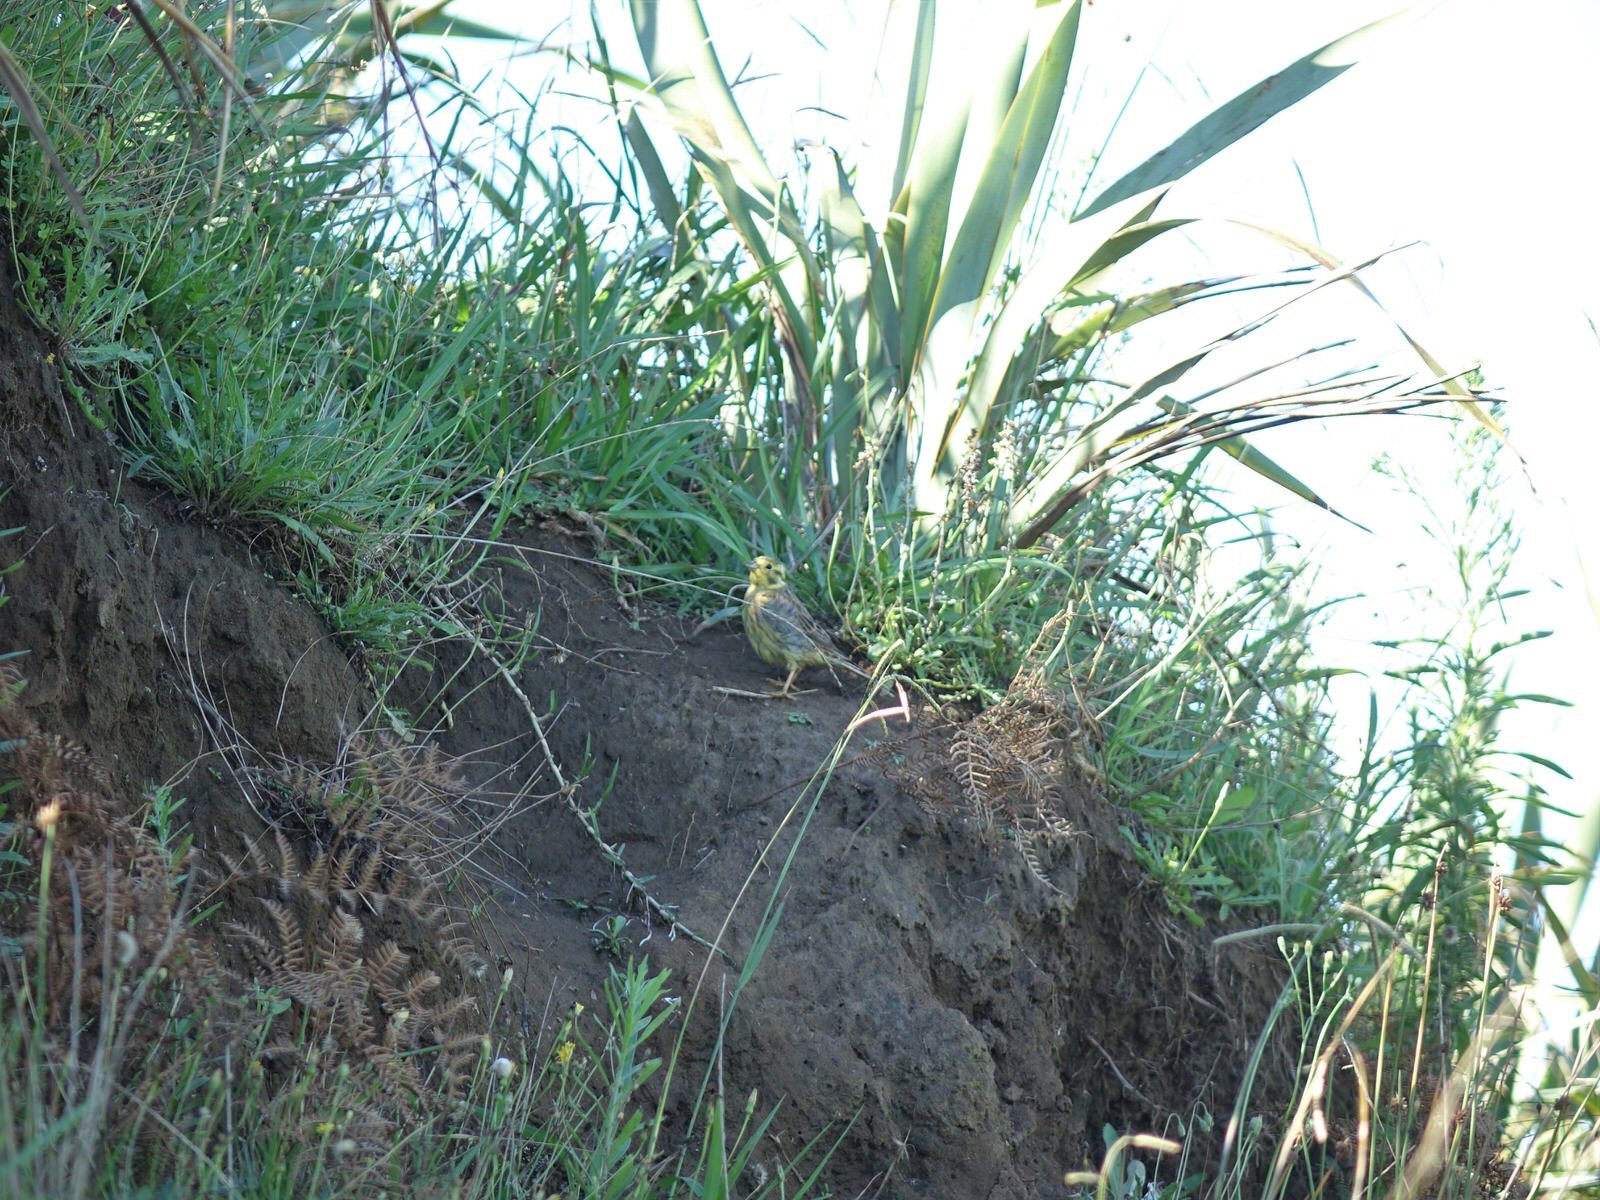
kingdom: Animalia
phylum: Chordata
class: Aves
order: Passeriformes
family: Emberizidae
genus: Emberiza
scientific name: Emberiza citrinella
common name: Yellowhammer
